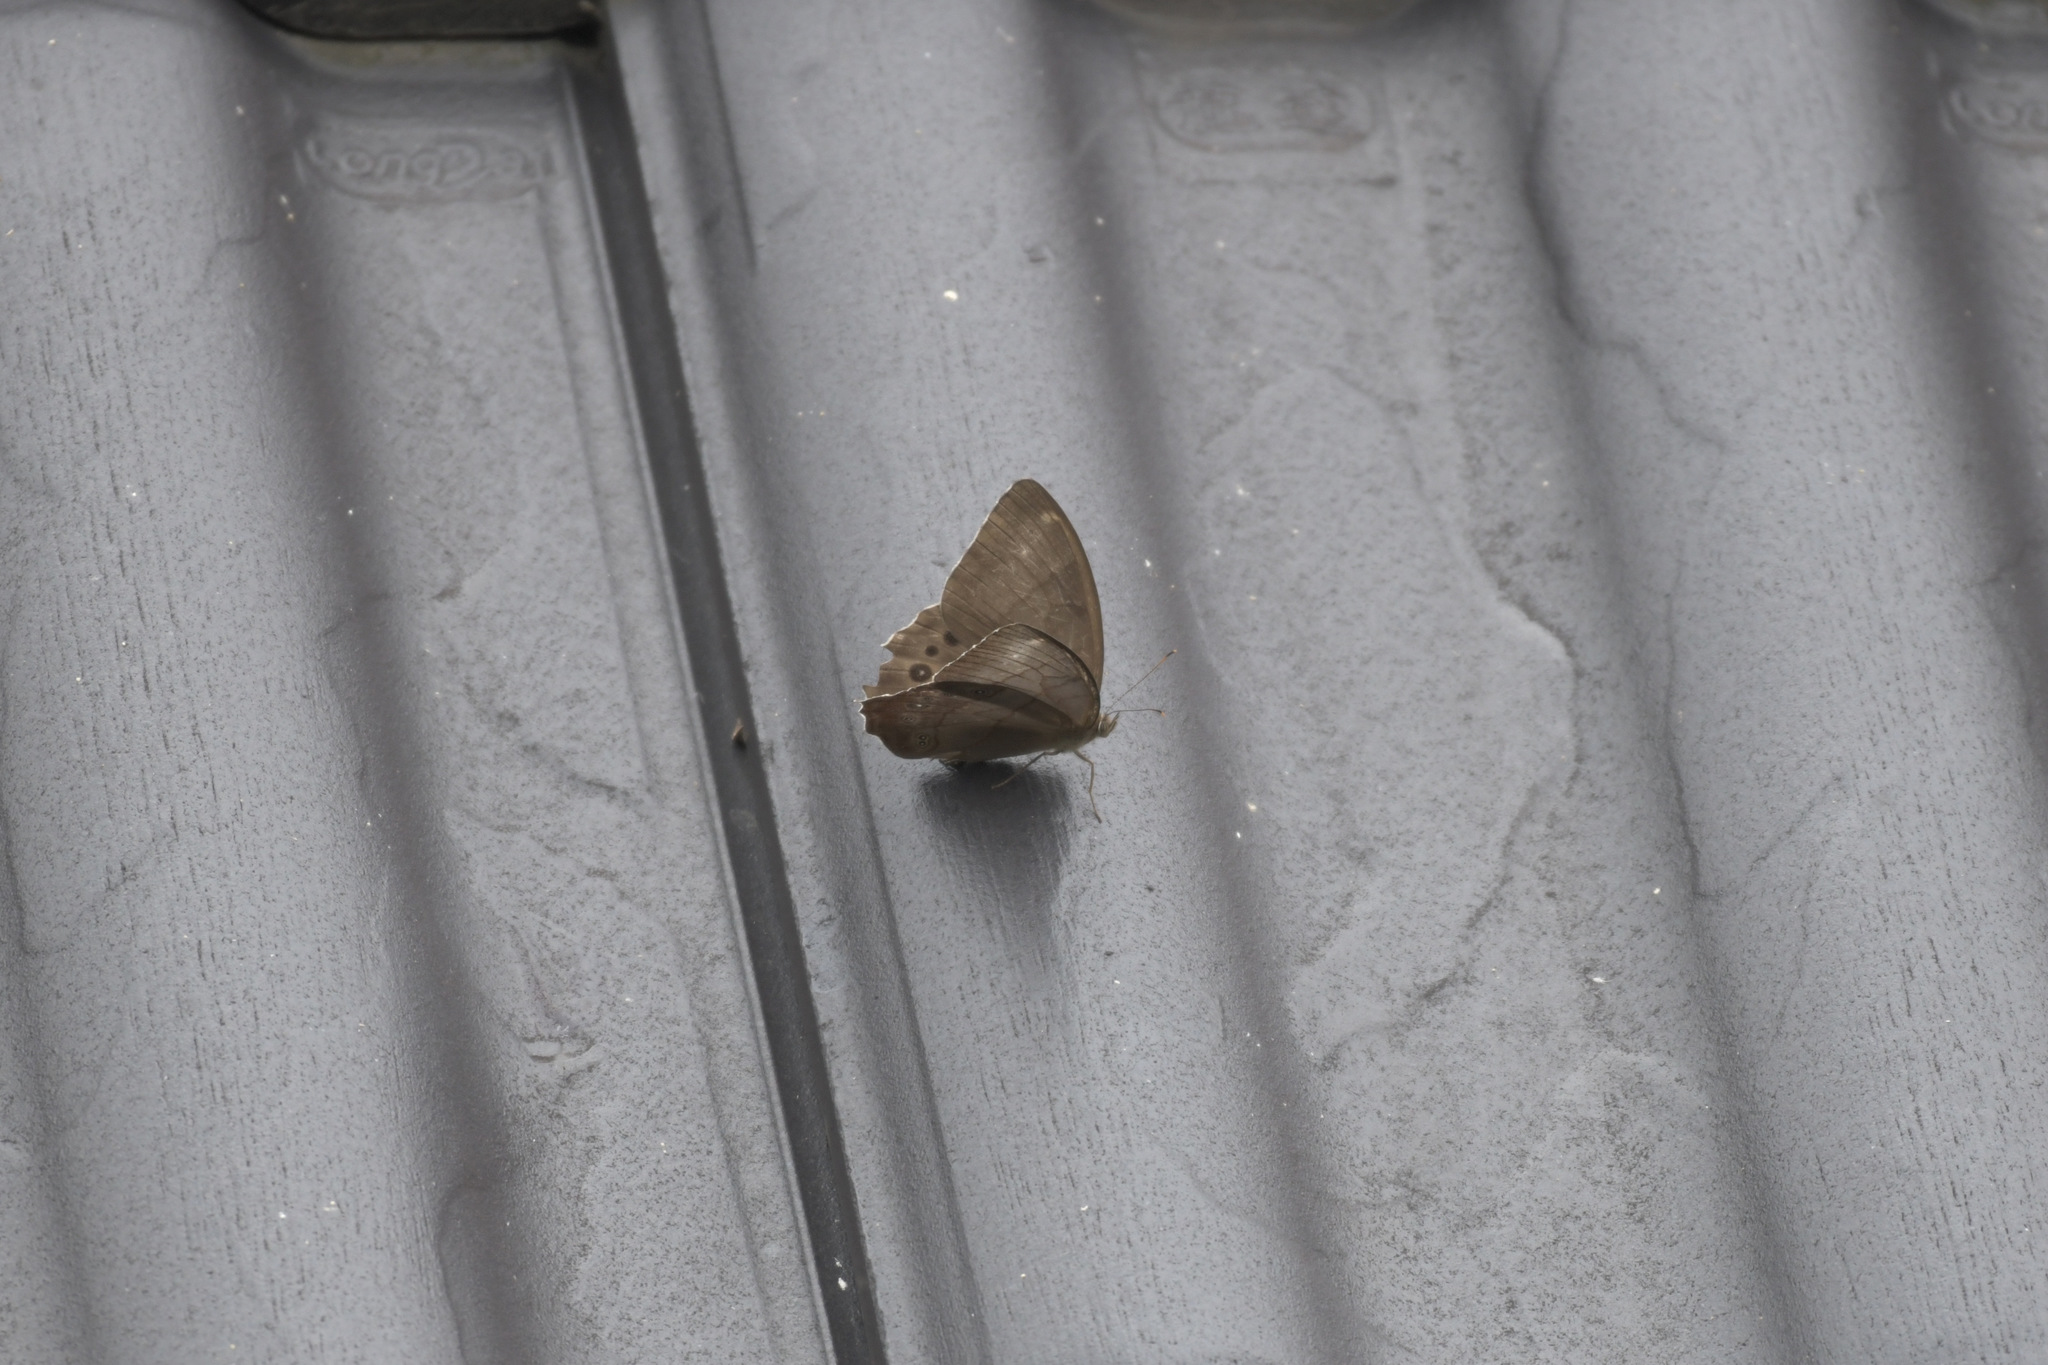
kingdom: Animalia
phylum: Arthropoda
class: Insecta
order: Lepidoptera
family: Nymphalidae
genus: Lethe
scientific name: Lethe christophi
